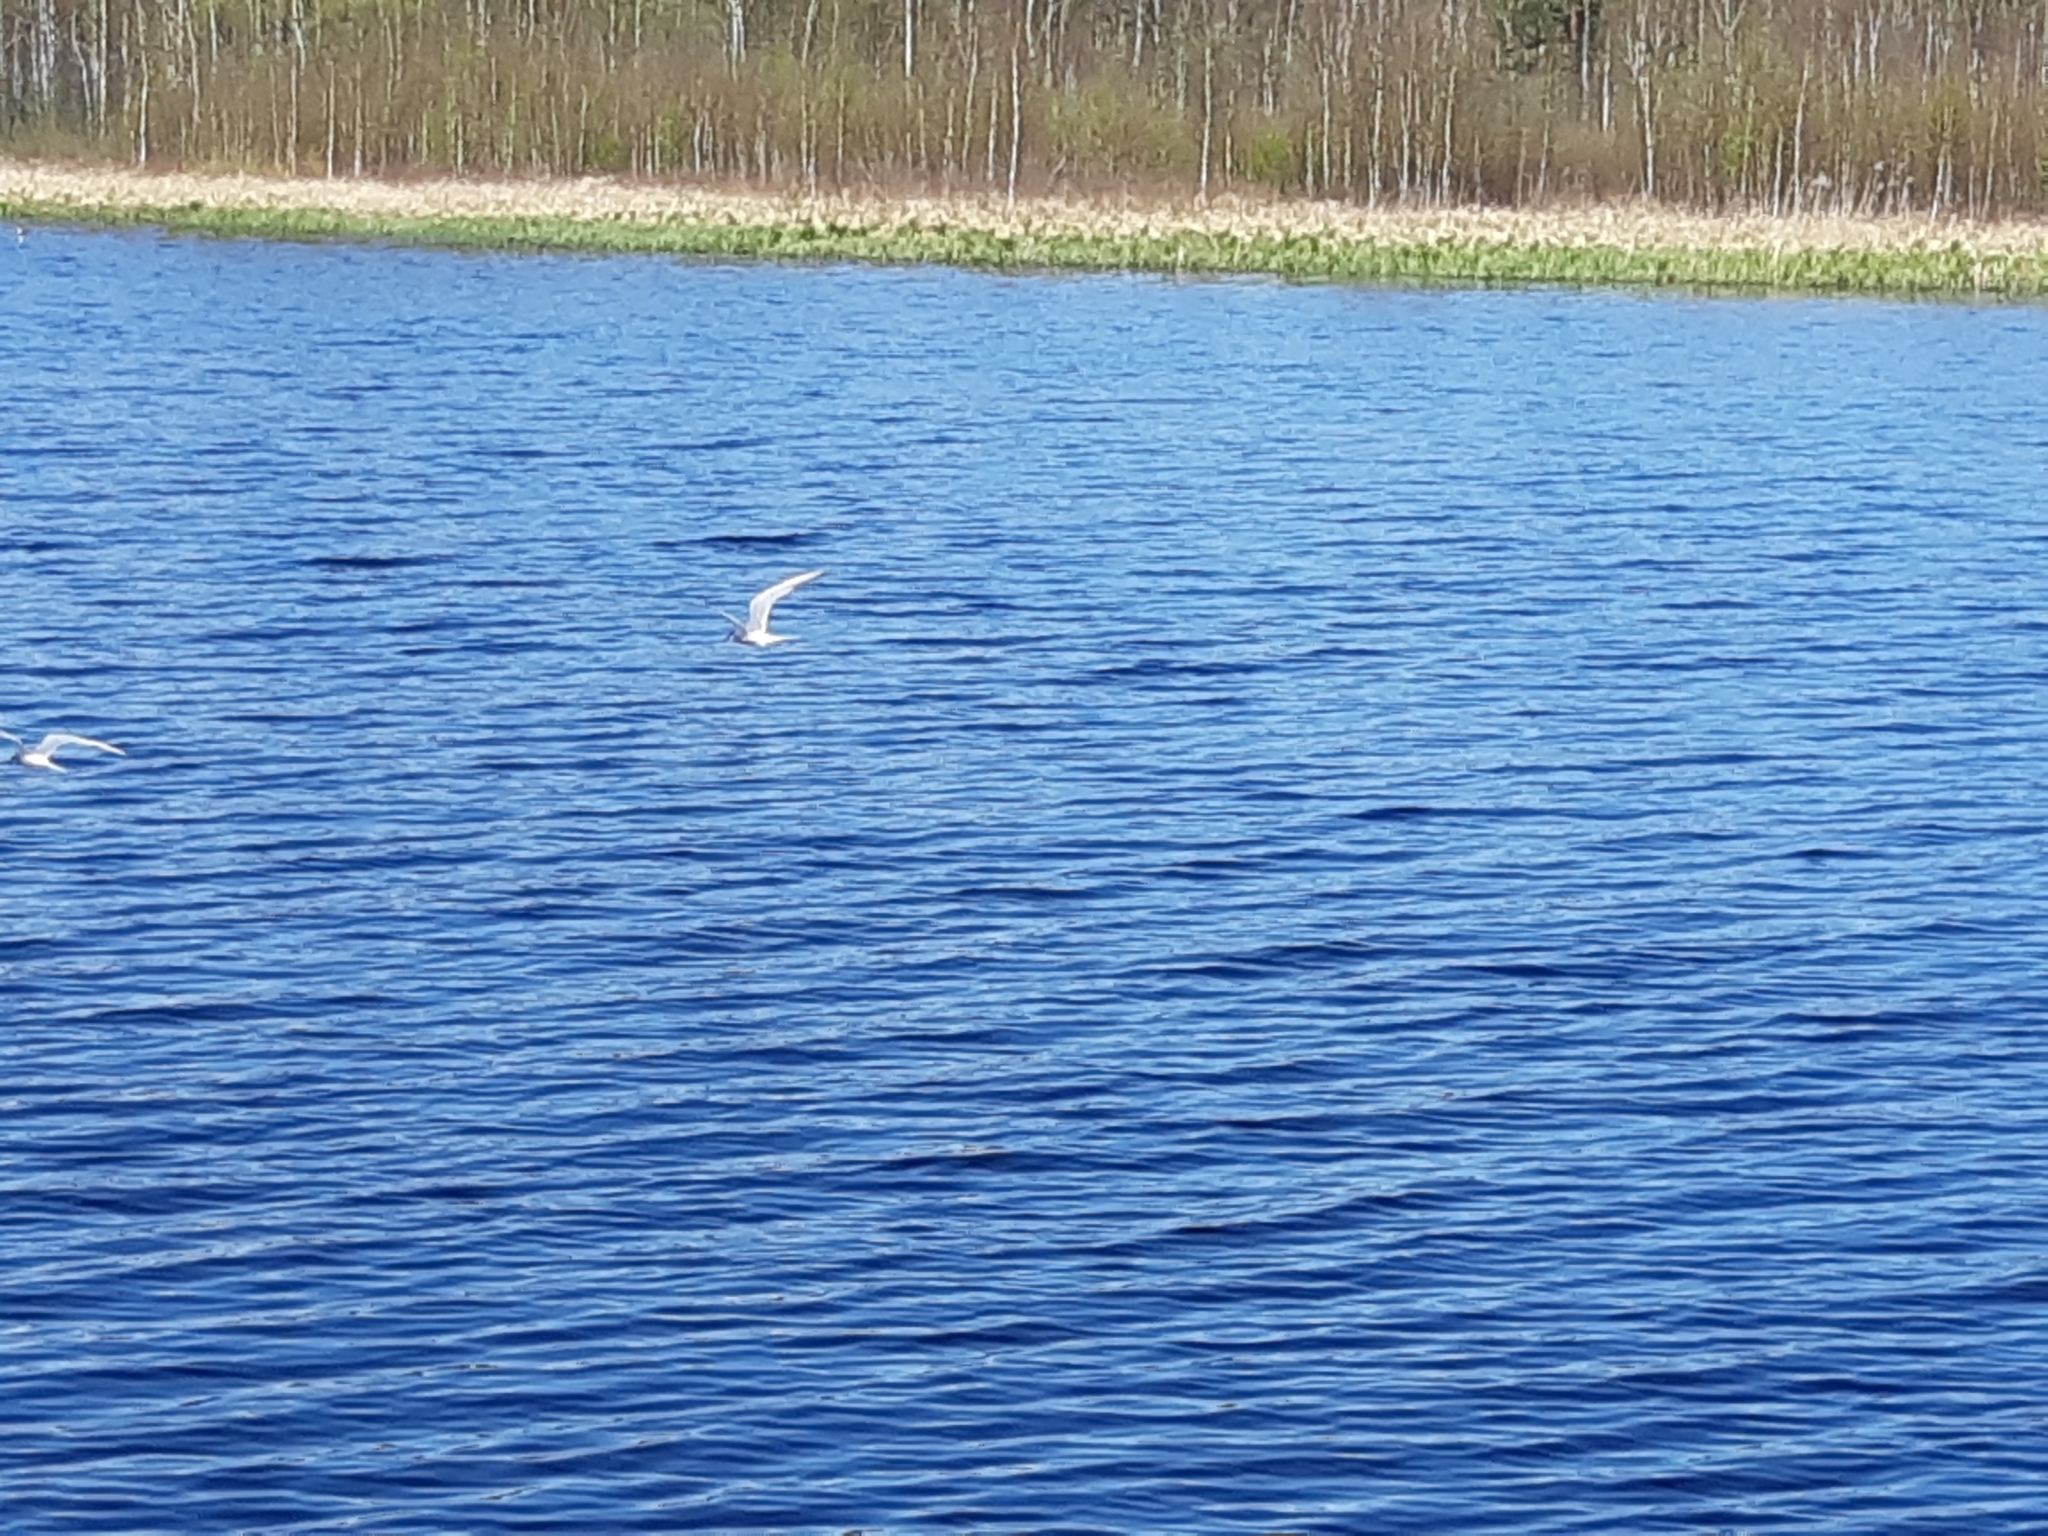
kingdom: Animalia
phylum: Chordata
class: Aves
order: Charadriiformes
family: Laridae
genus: Sterna
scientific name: Sterna hirundo
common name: Common tern
